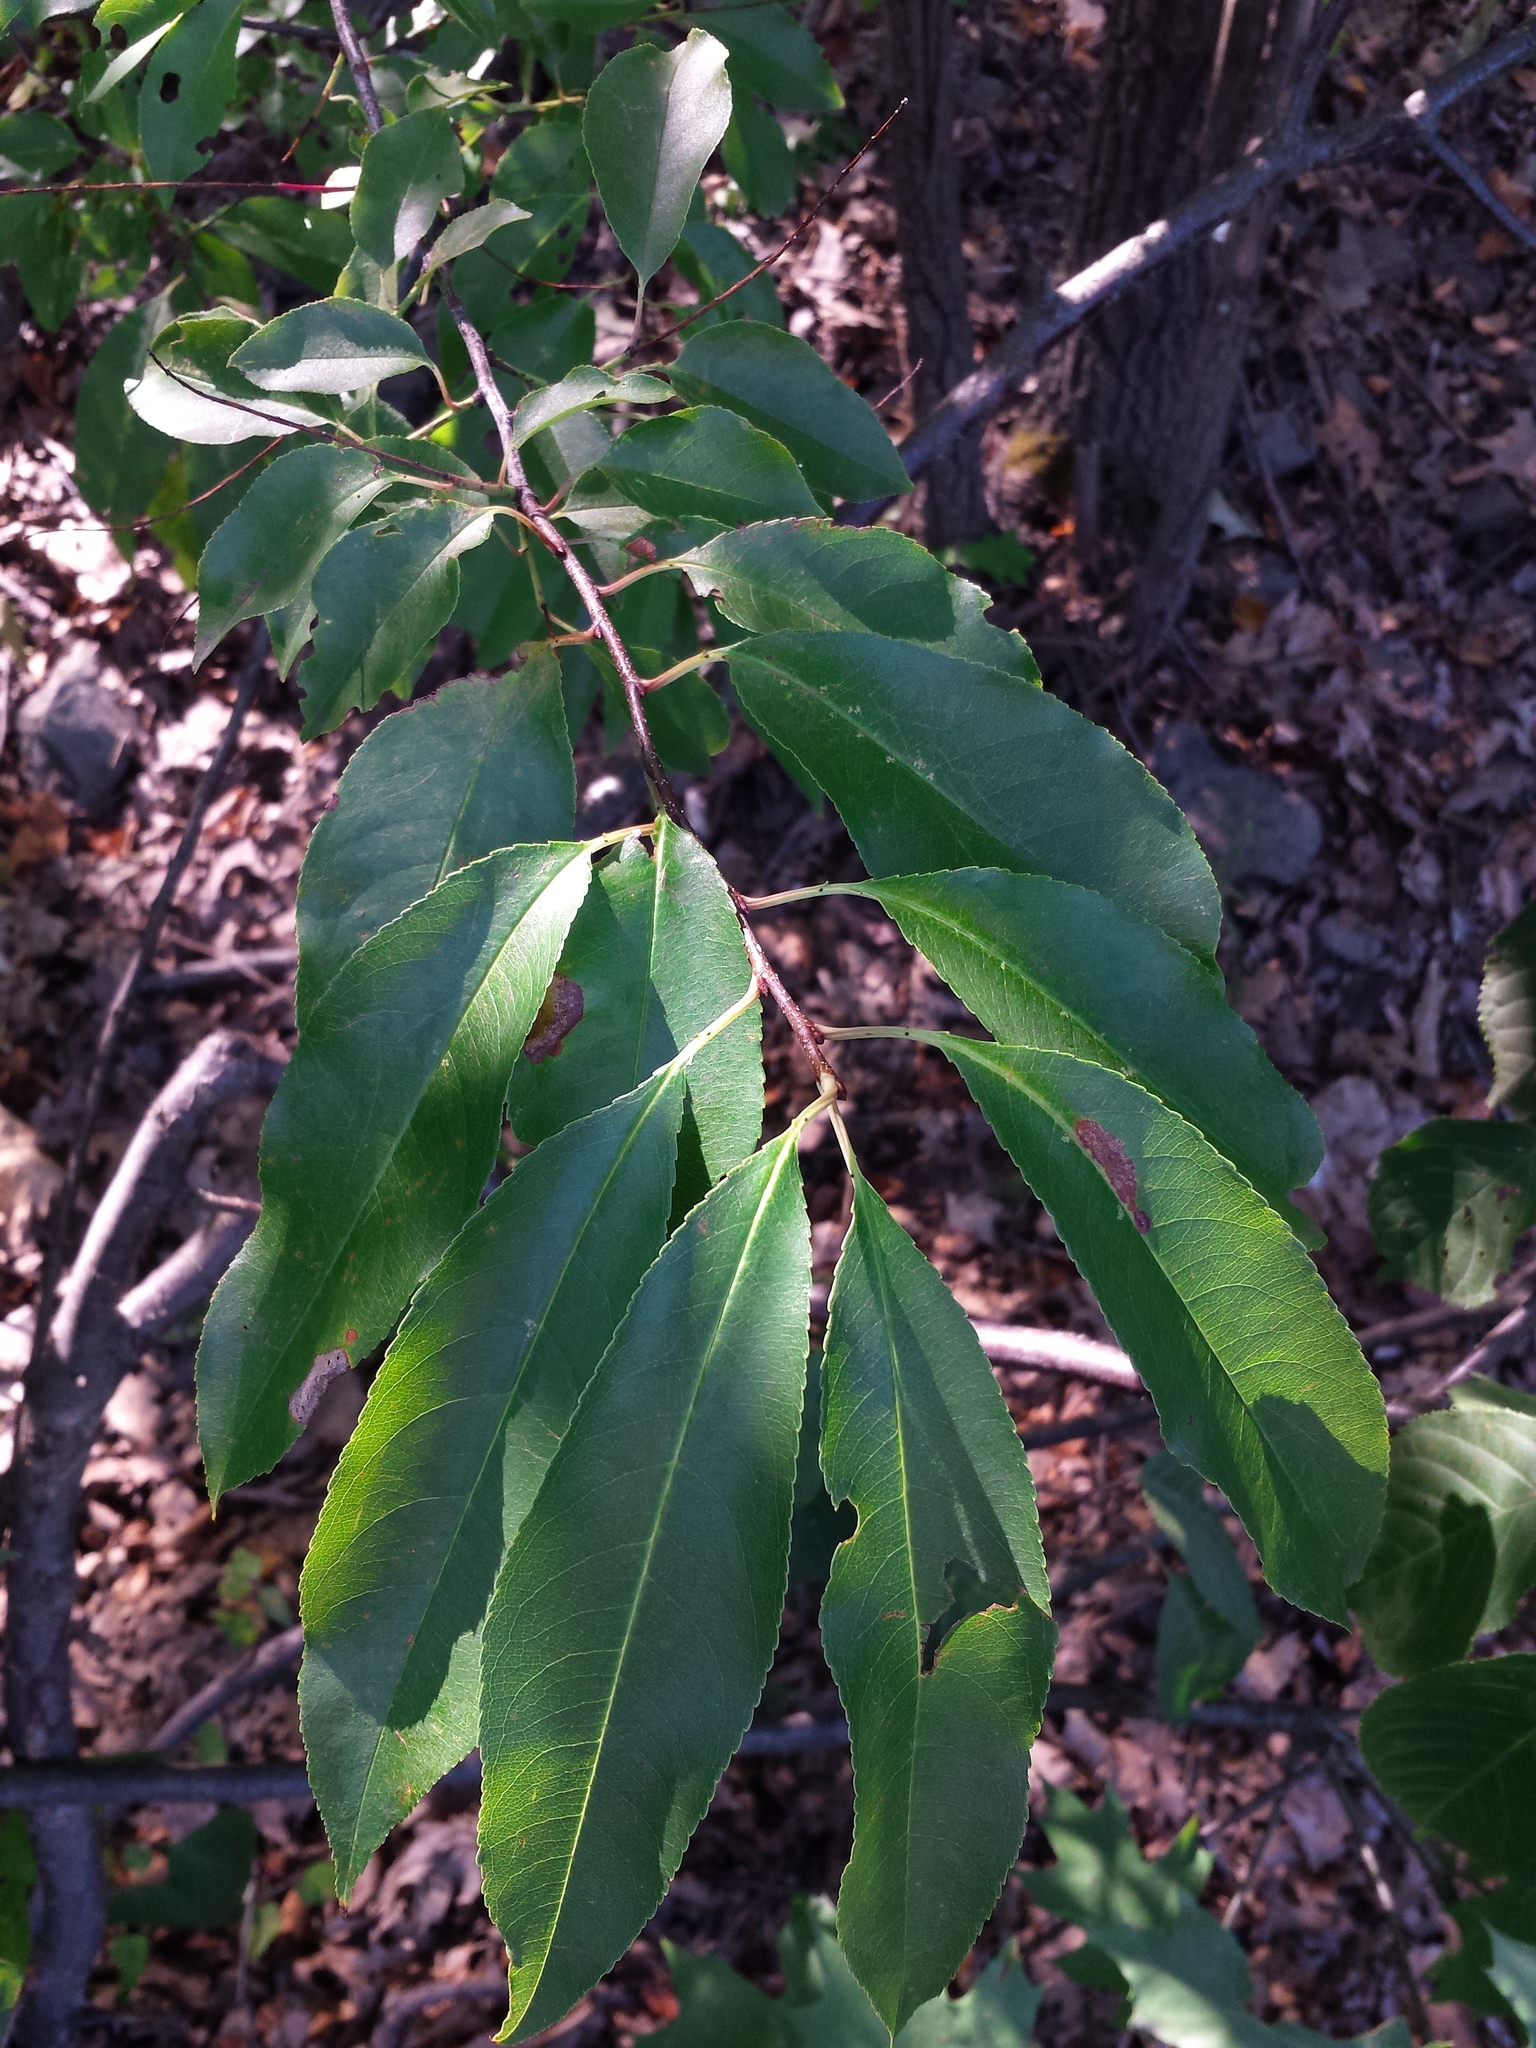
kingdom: Plantae
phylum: Tracheophyta
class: Magnoliopsida
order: Rosales
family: Rosaceae
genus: Prunus
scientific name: Prunus serotina
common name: Black cherry
